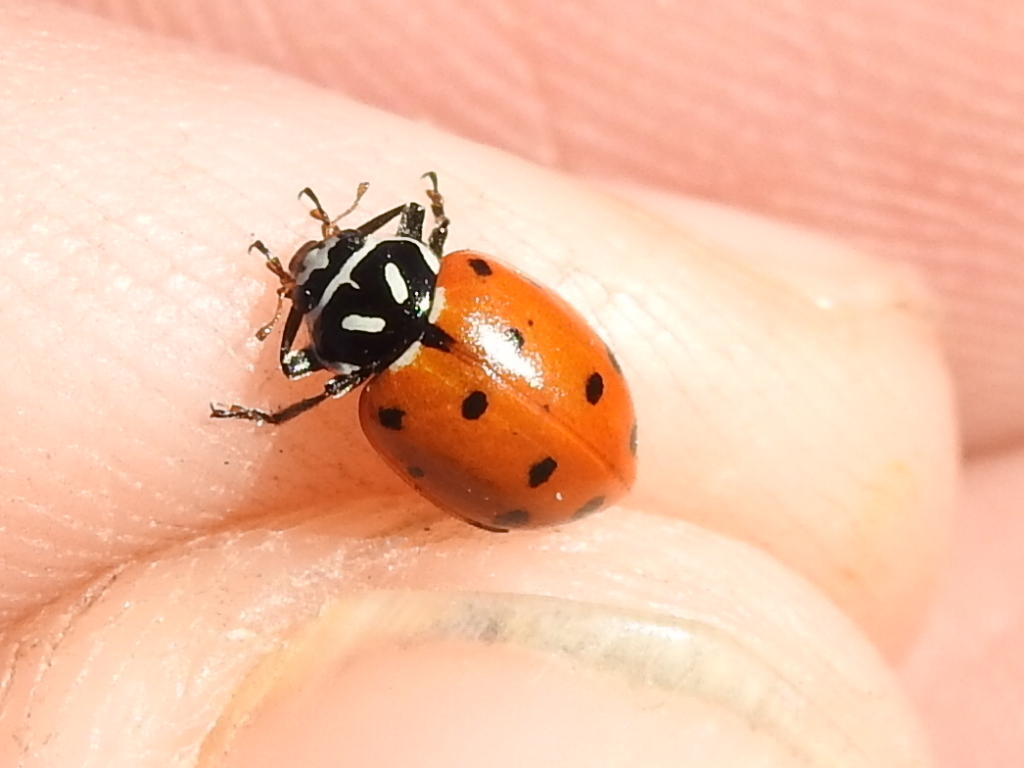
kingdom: Animalia
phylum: Arthropoda
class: Insecta
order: Coleoptera
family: Coccinellidae
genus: Hippodamia
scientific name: Hippodamia convergens
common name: Convergent lady beetle
